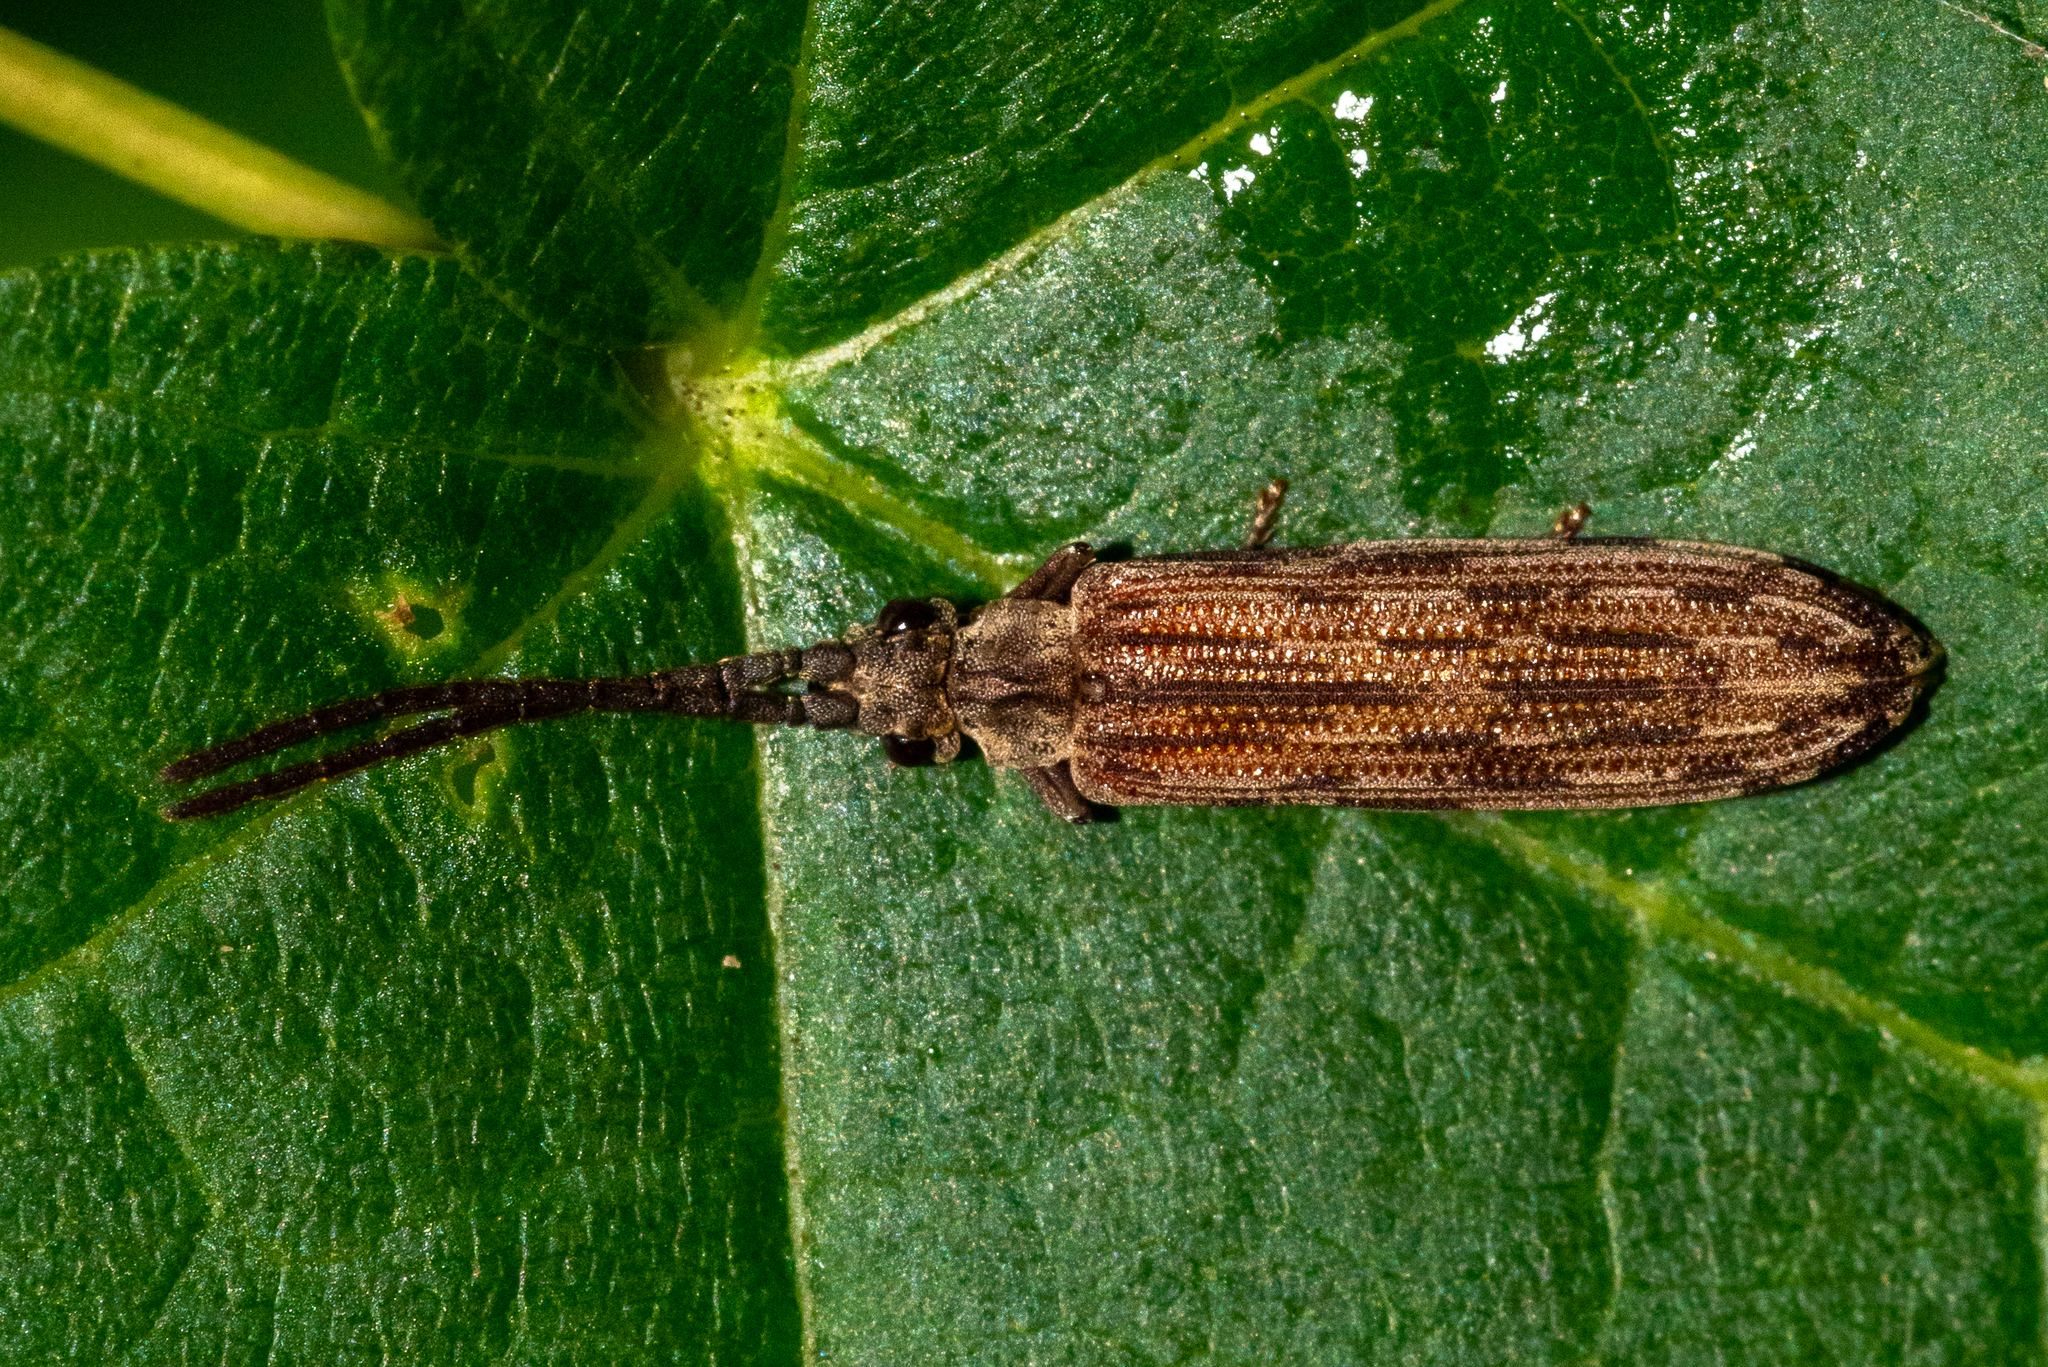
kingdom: Animalia
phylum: Arthropoda
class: Insecta
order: Coleoptera
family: Cupedidae
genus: Tenomerga
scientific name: Tenomerga cinerea
